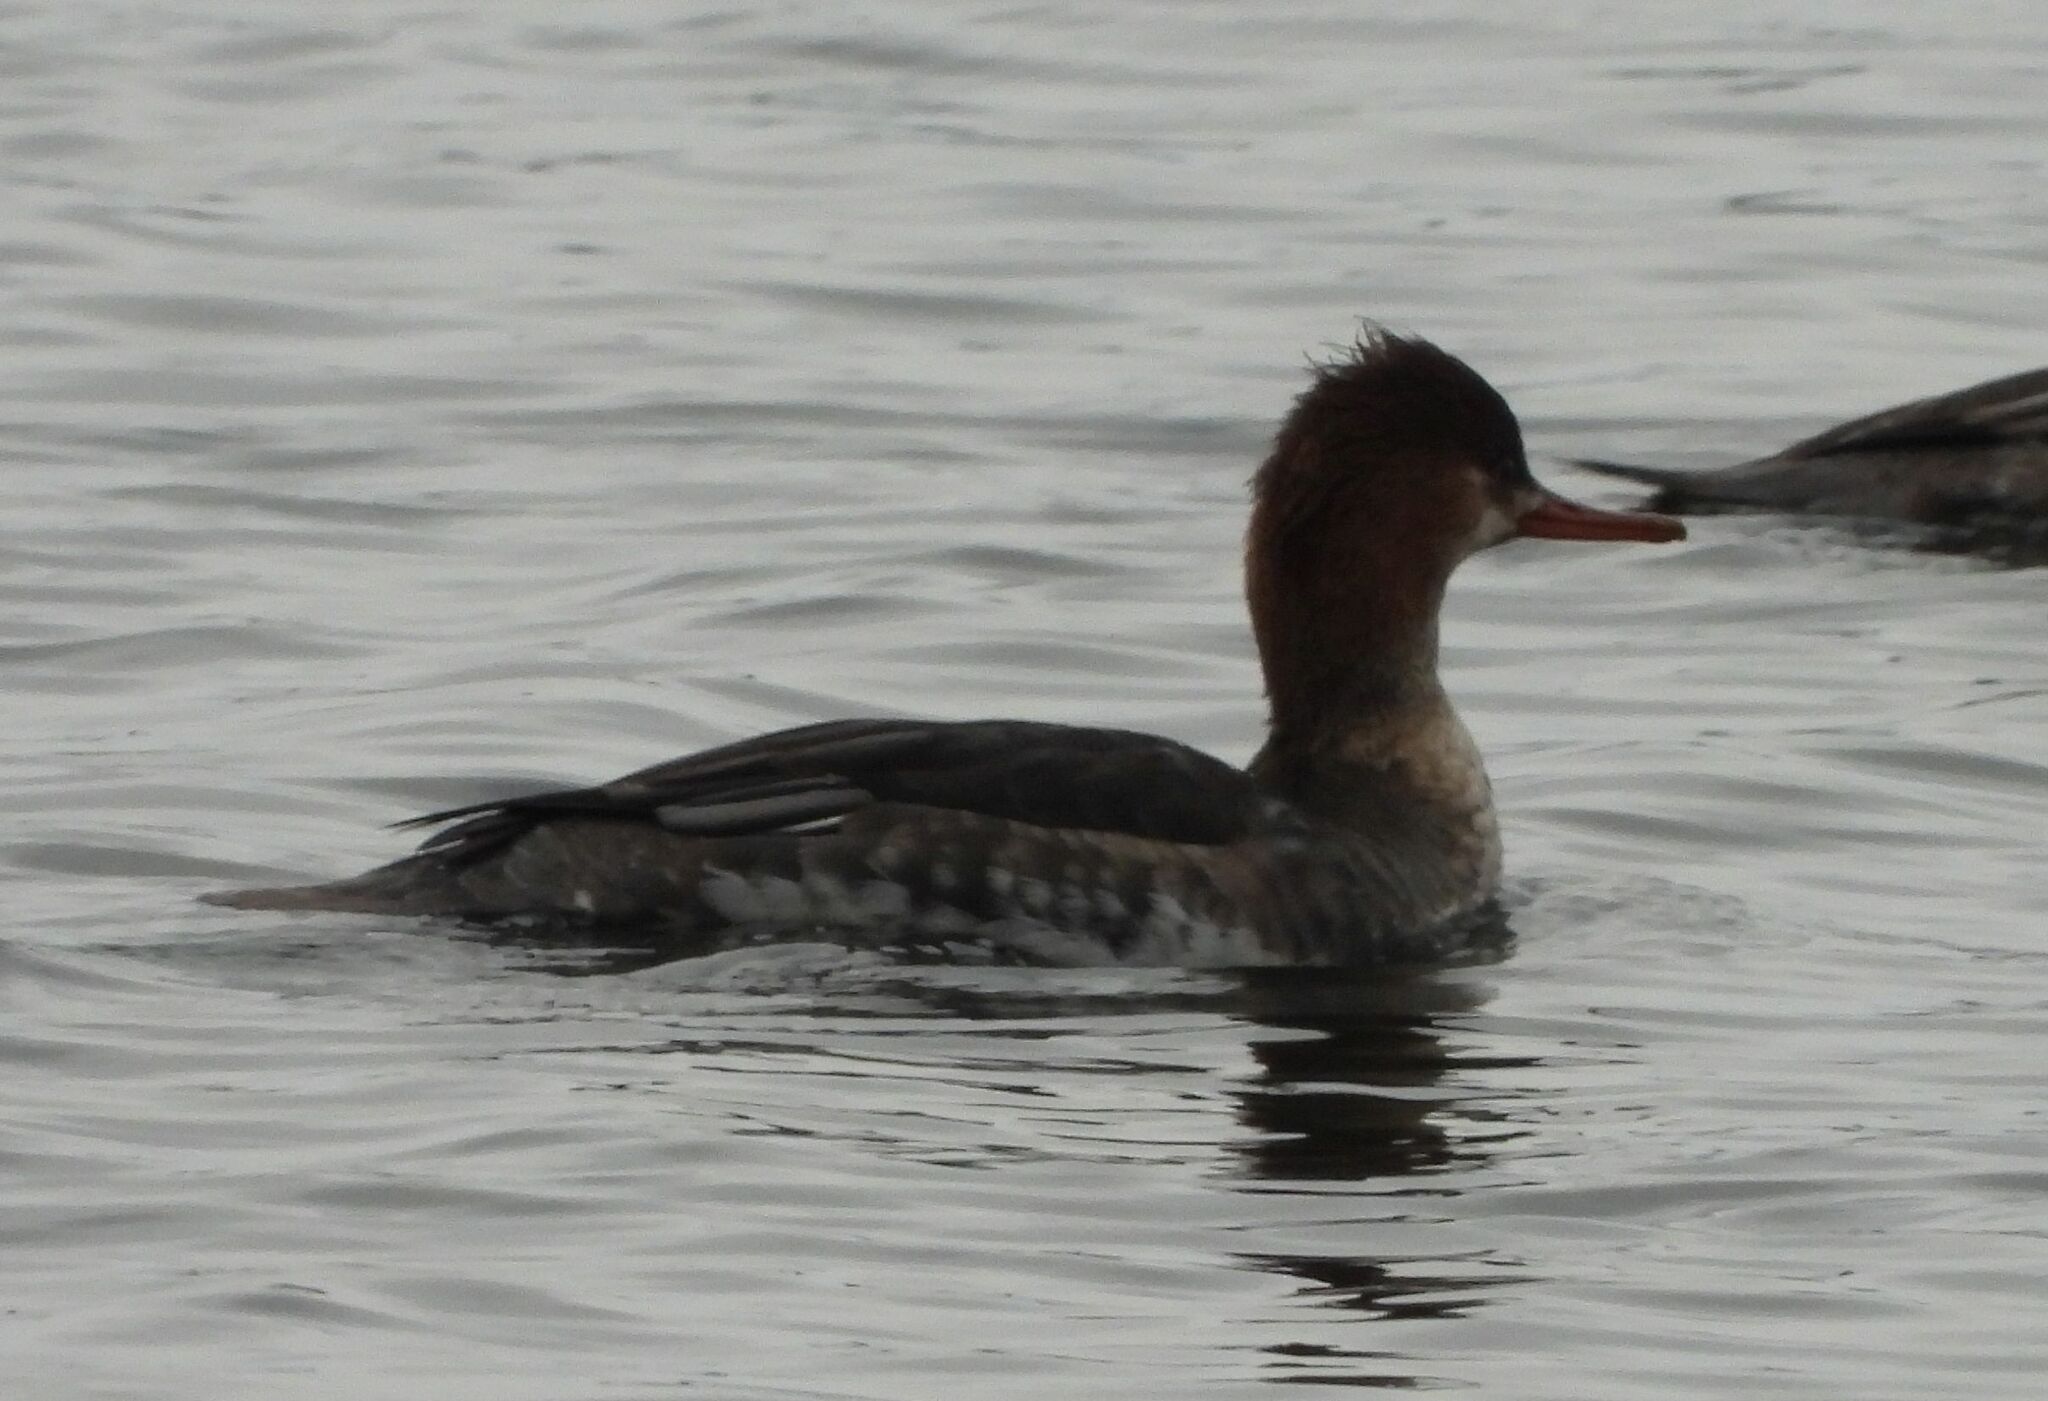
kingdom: Animalia
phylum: Chordata
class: Aves
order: Anseriformes
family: Anatidae
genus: Mergus
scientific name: Mergus serrator
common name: Red-breasted merganser
